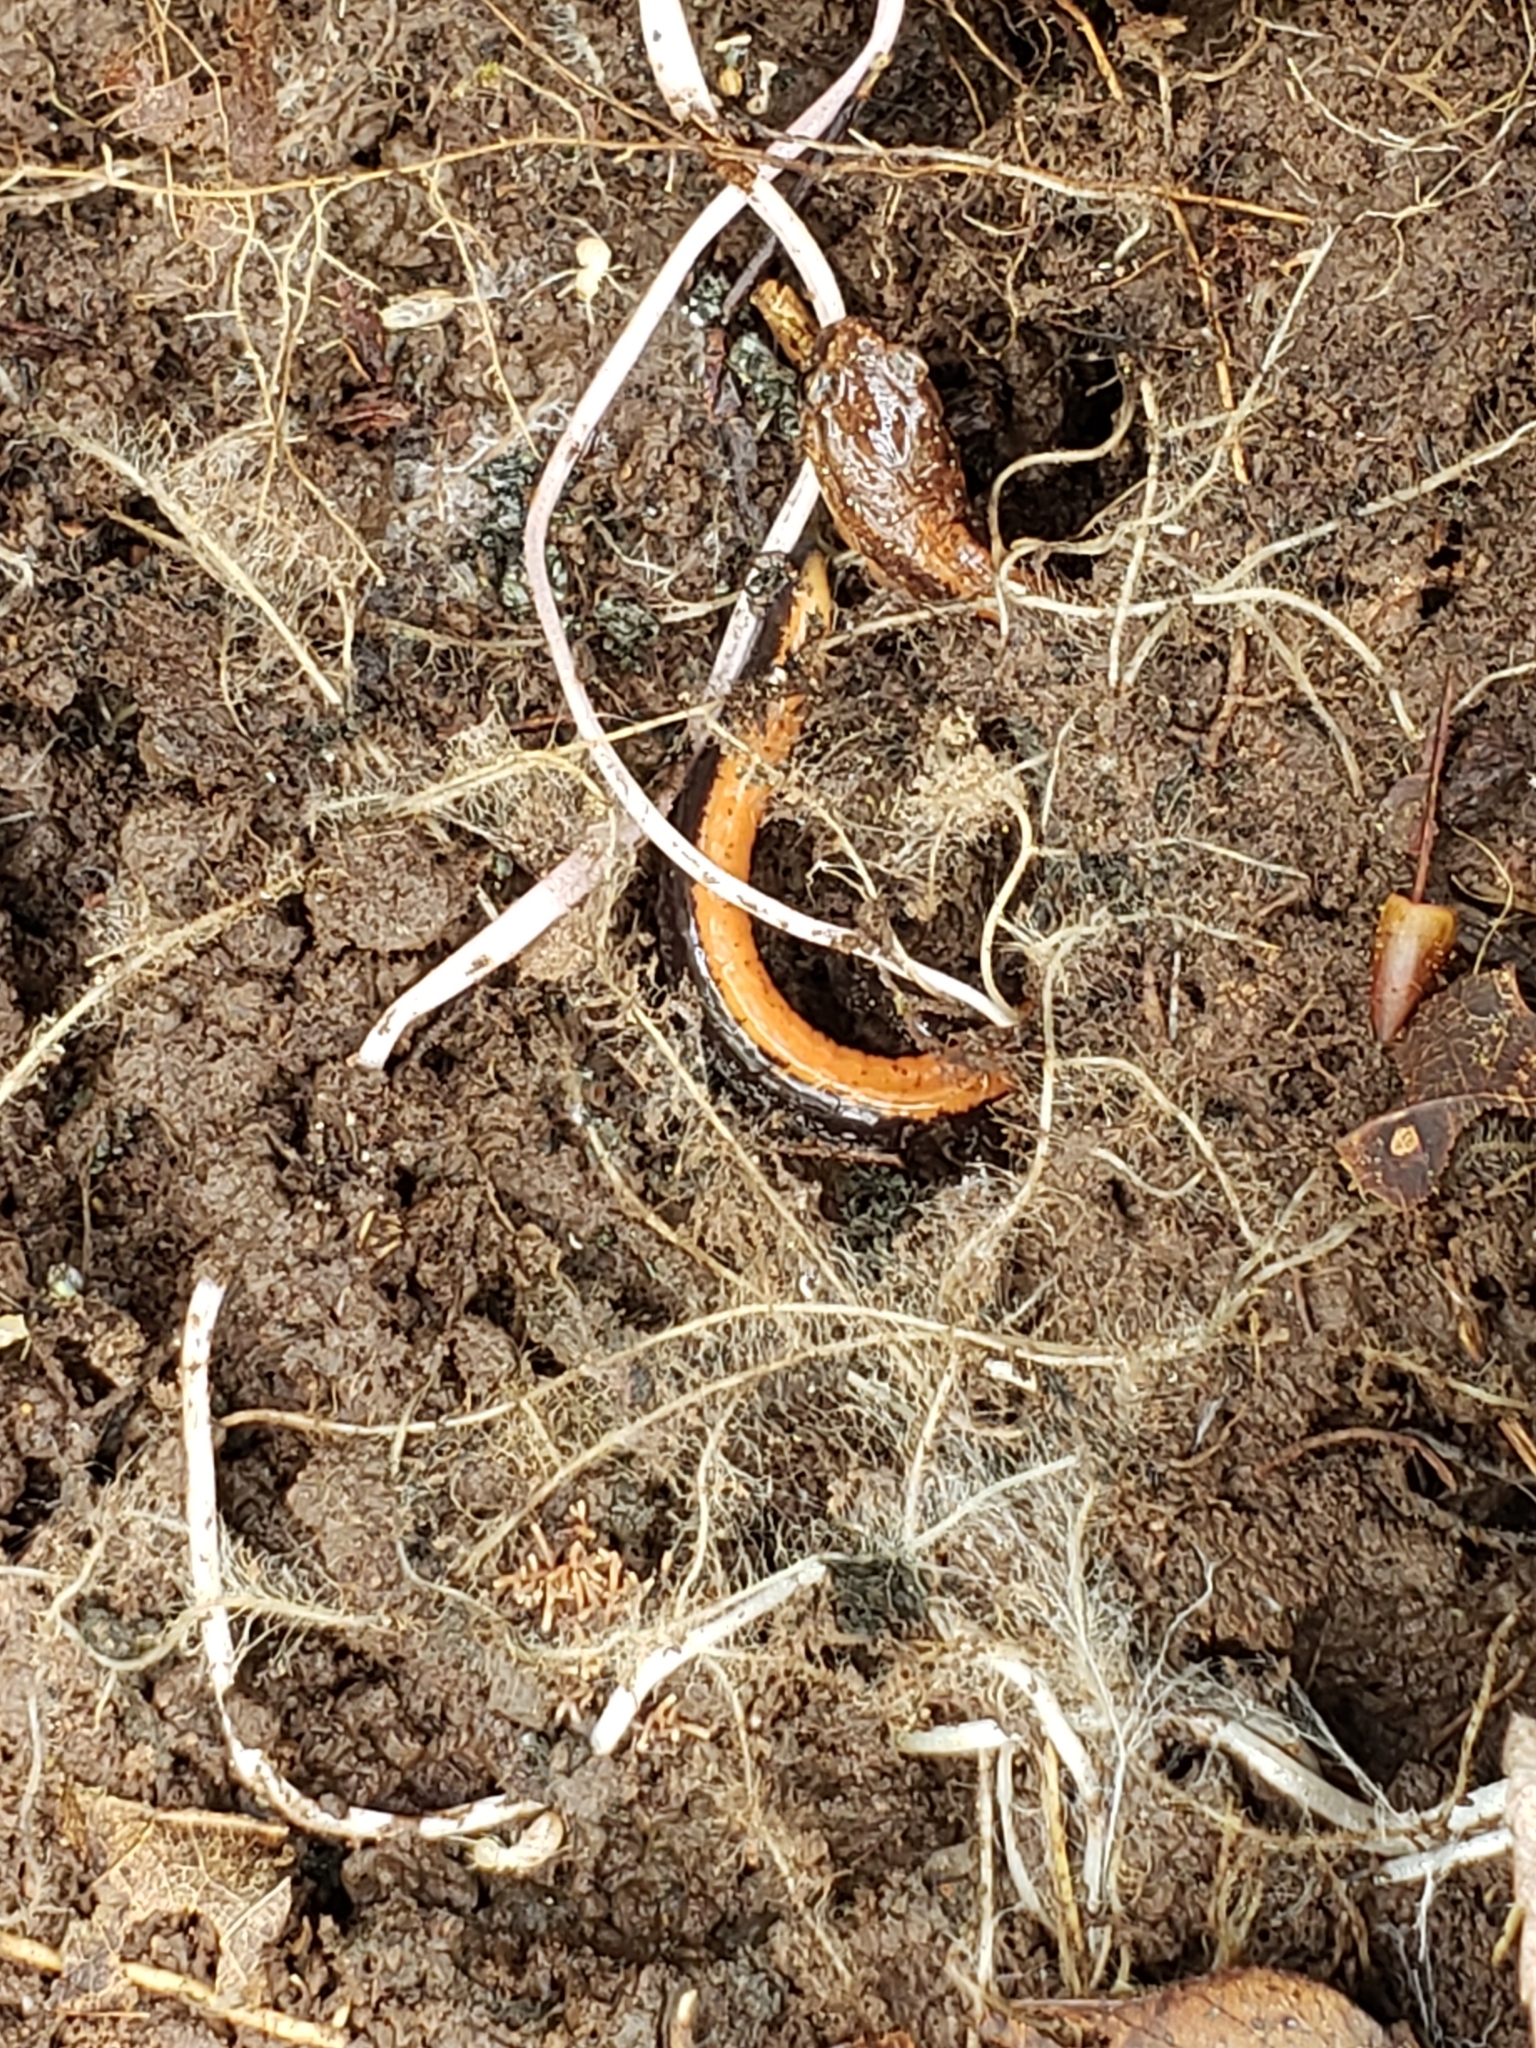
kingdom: Animalia
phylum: Chordata
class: Amphibia
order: Caudata
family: Plethodontidae
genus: Plethodon
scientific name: Plethodon cinereus
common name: Redback salamander
